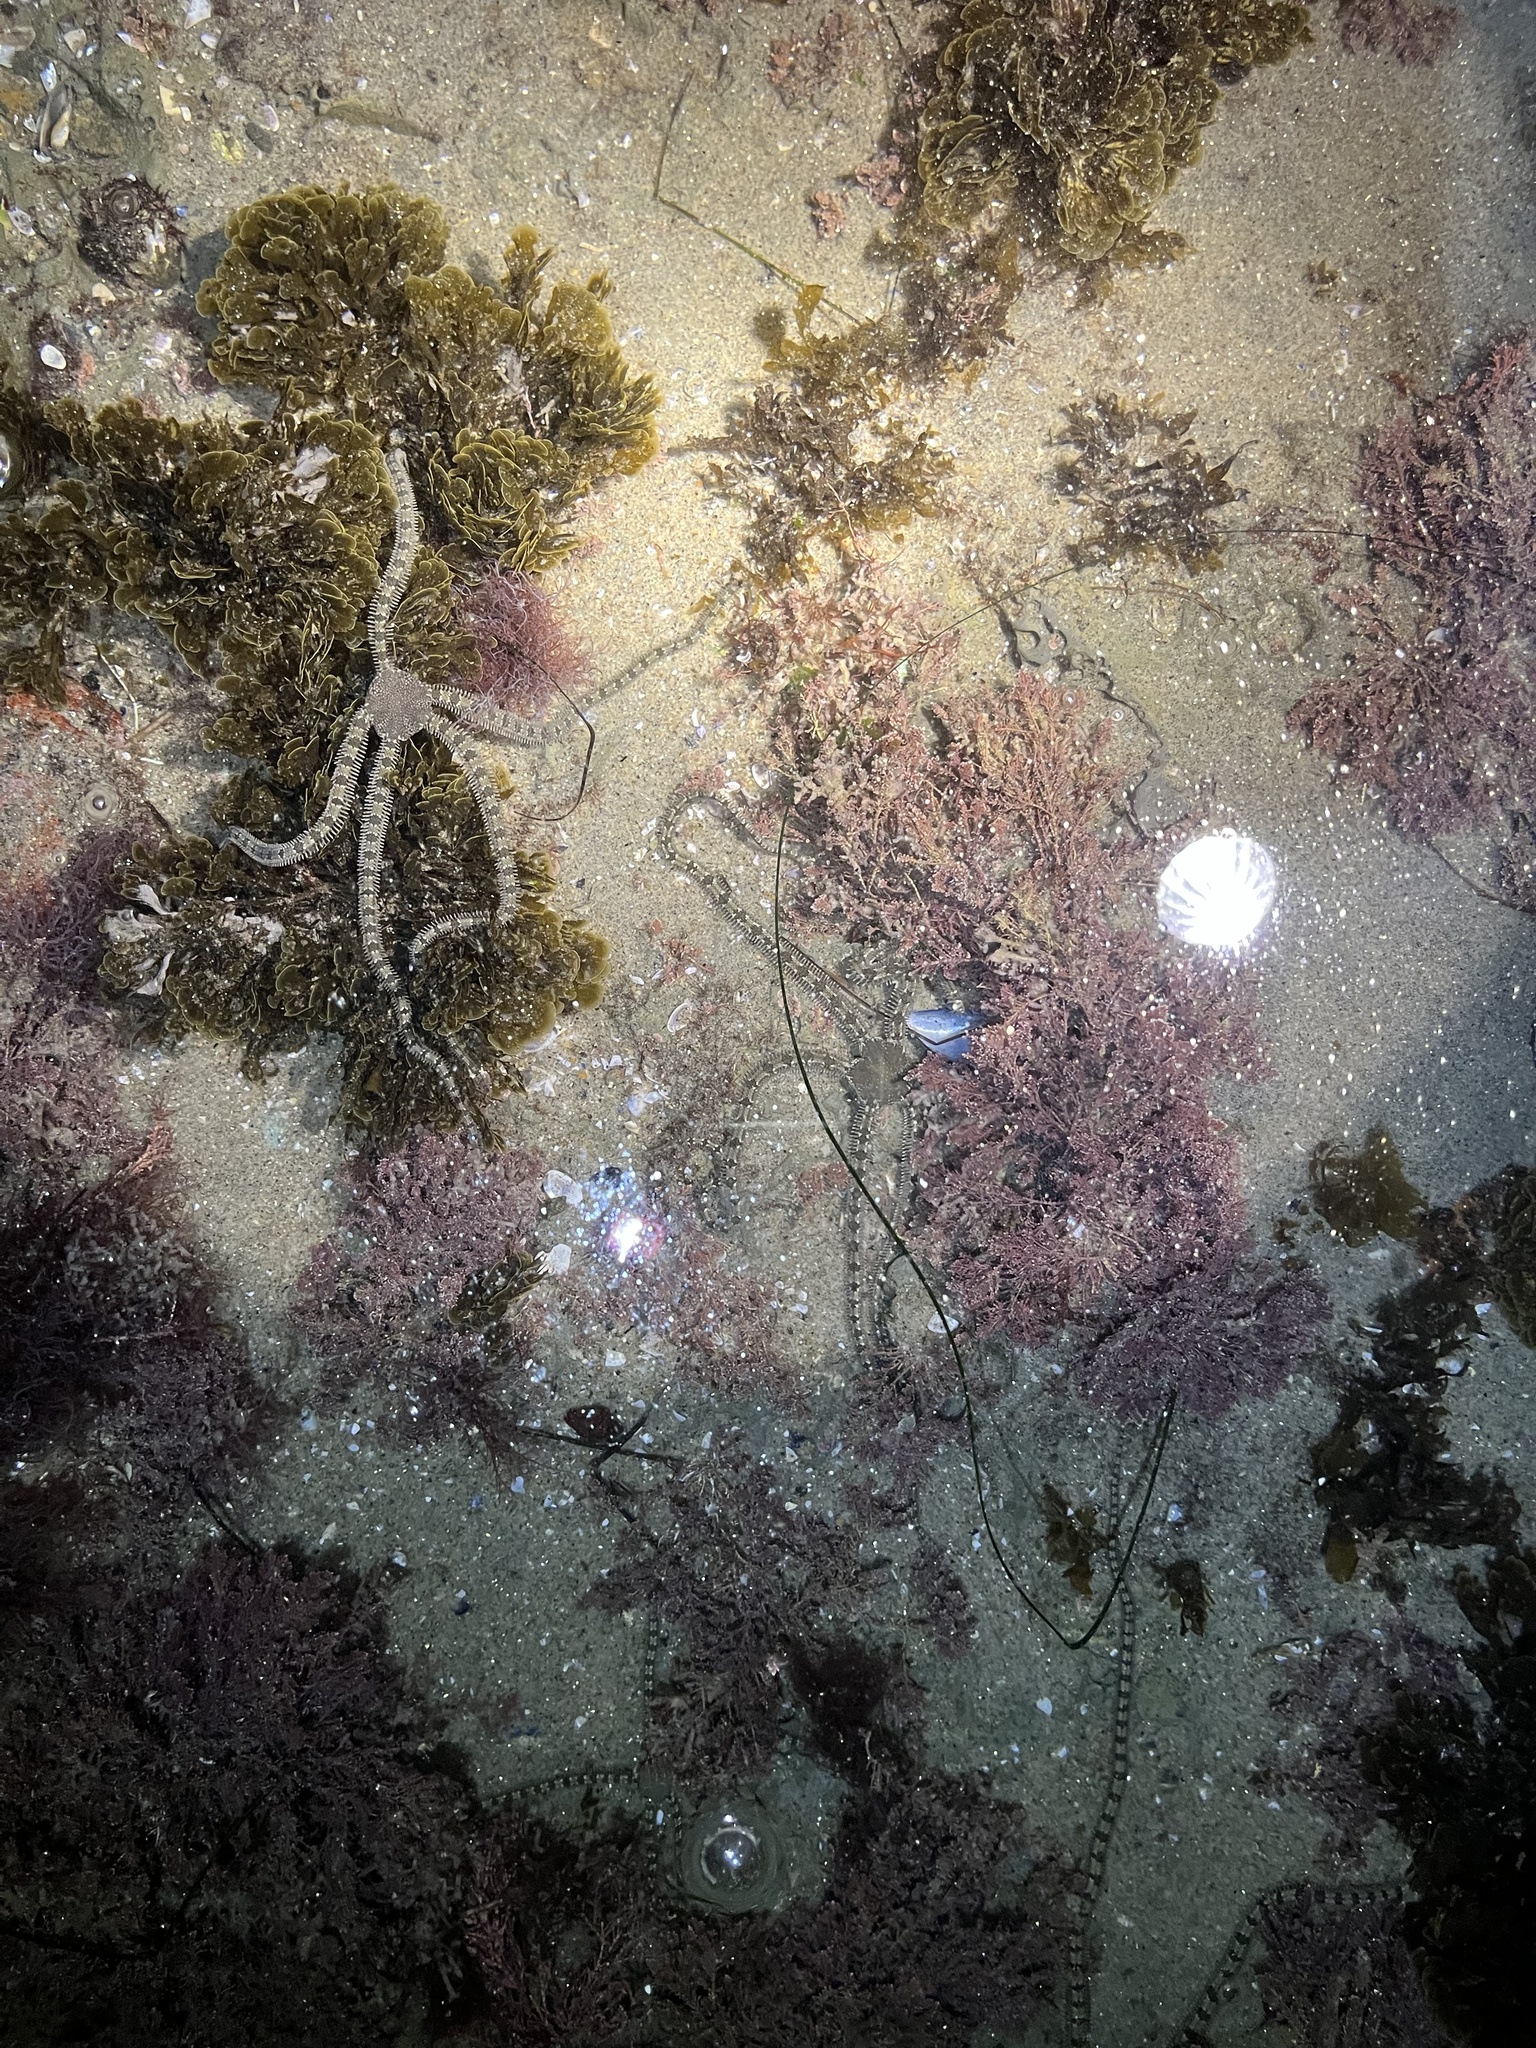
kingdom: Animalia
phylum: Echinodermata
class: Ophiuroidea
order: Amphilepidida
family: Ophionereididae
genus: Ophionereis
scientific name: Ophionereis annulata
